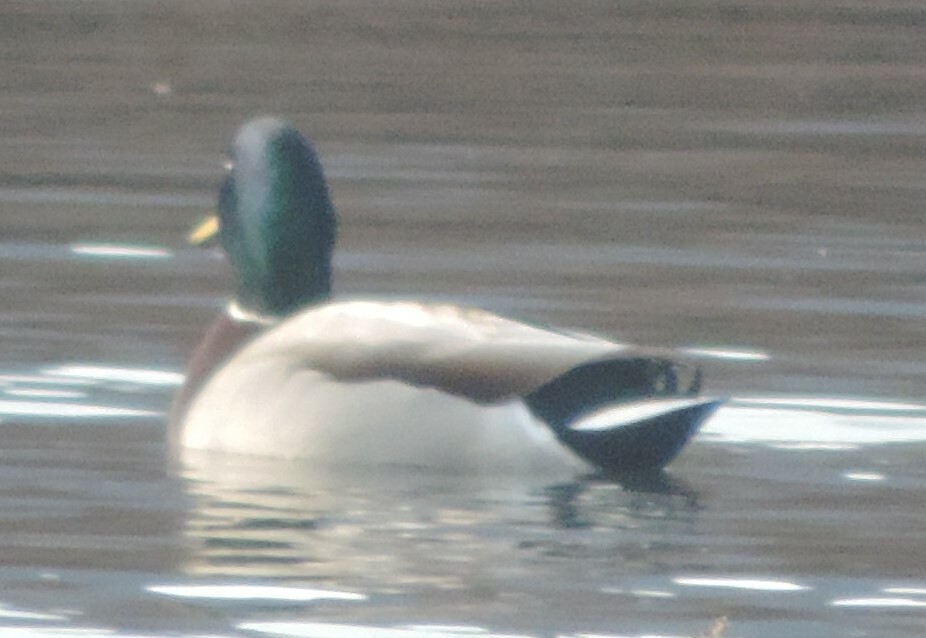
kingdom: Animalia
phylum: Chordata
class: Aves
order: Anseriformes
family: Anatidae
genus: Anas
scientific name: Anas platyrhynchos
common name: Mallard
